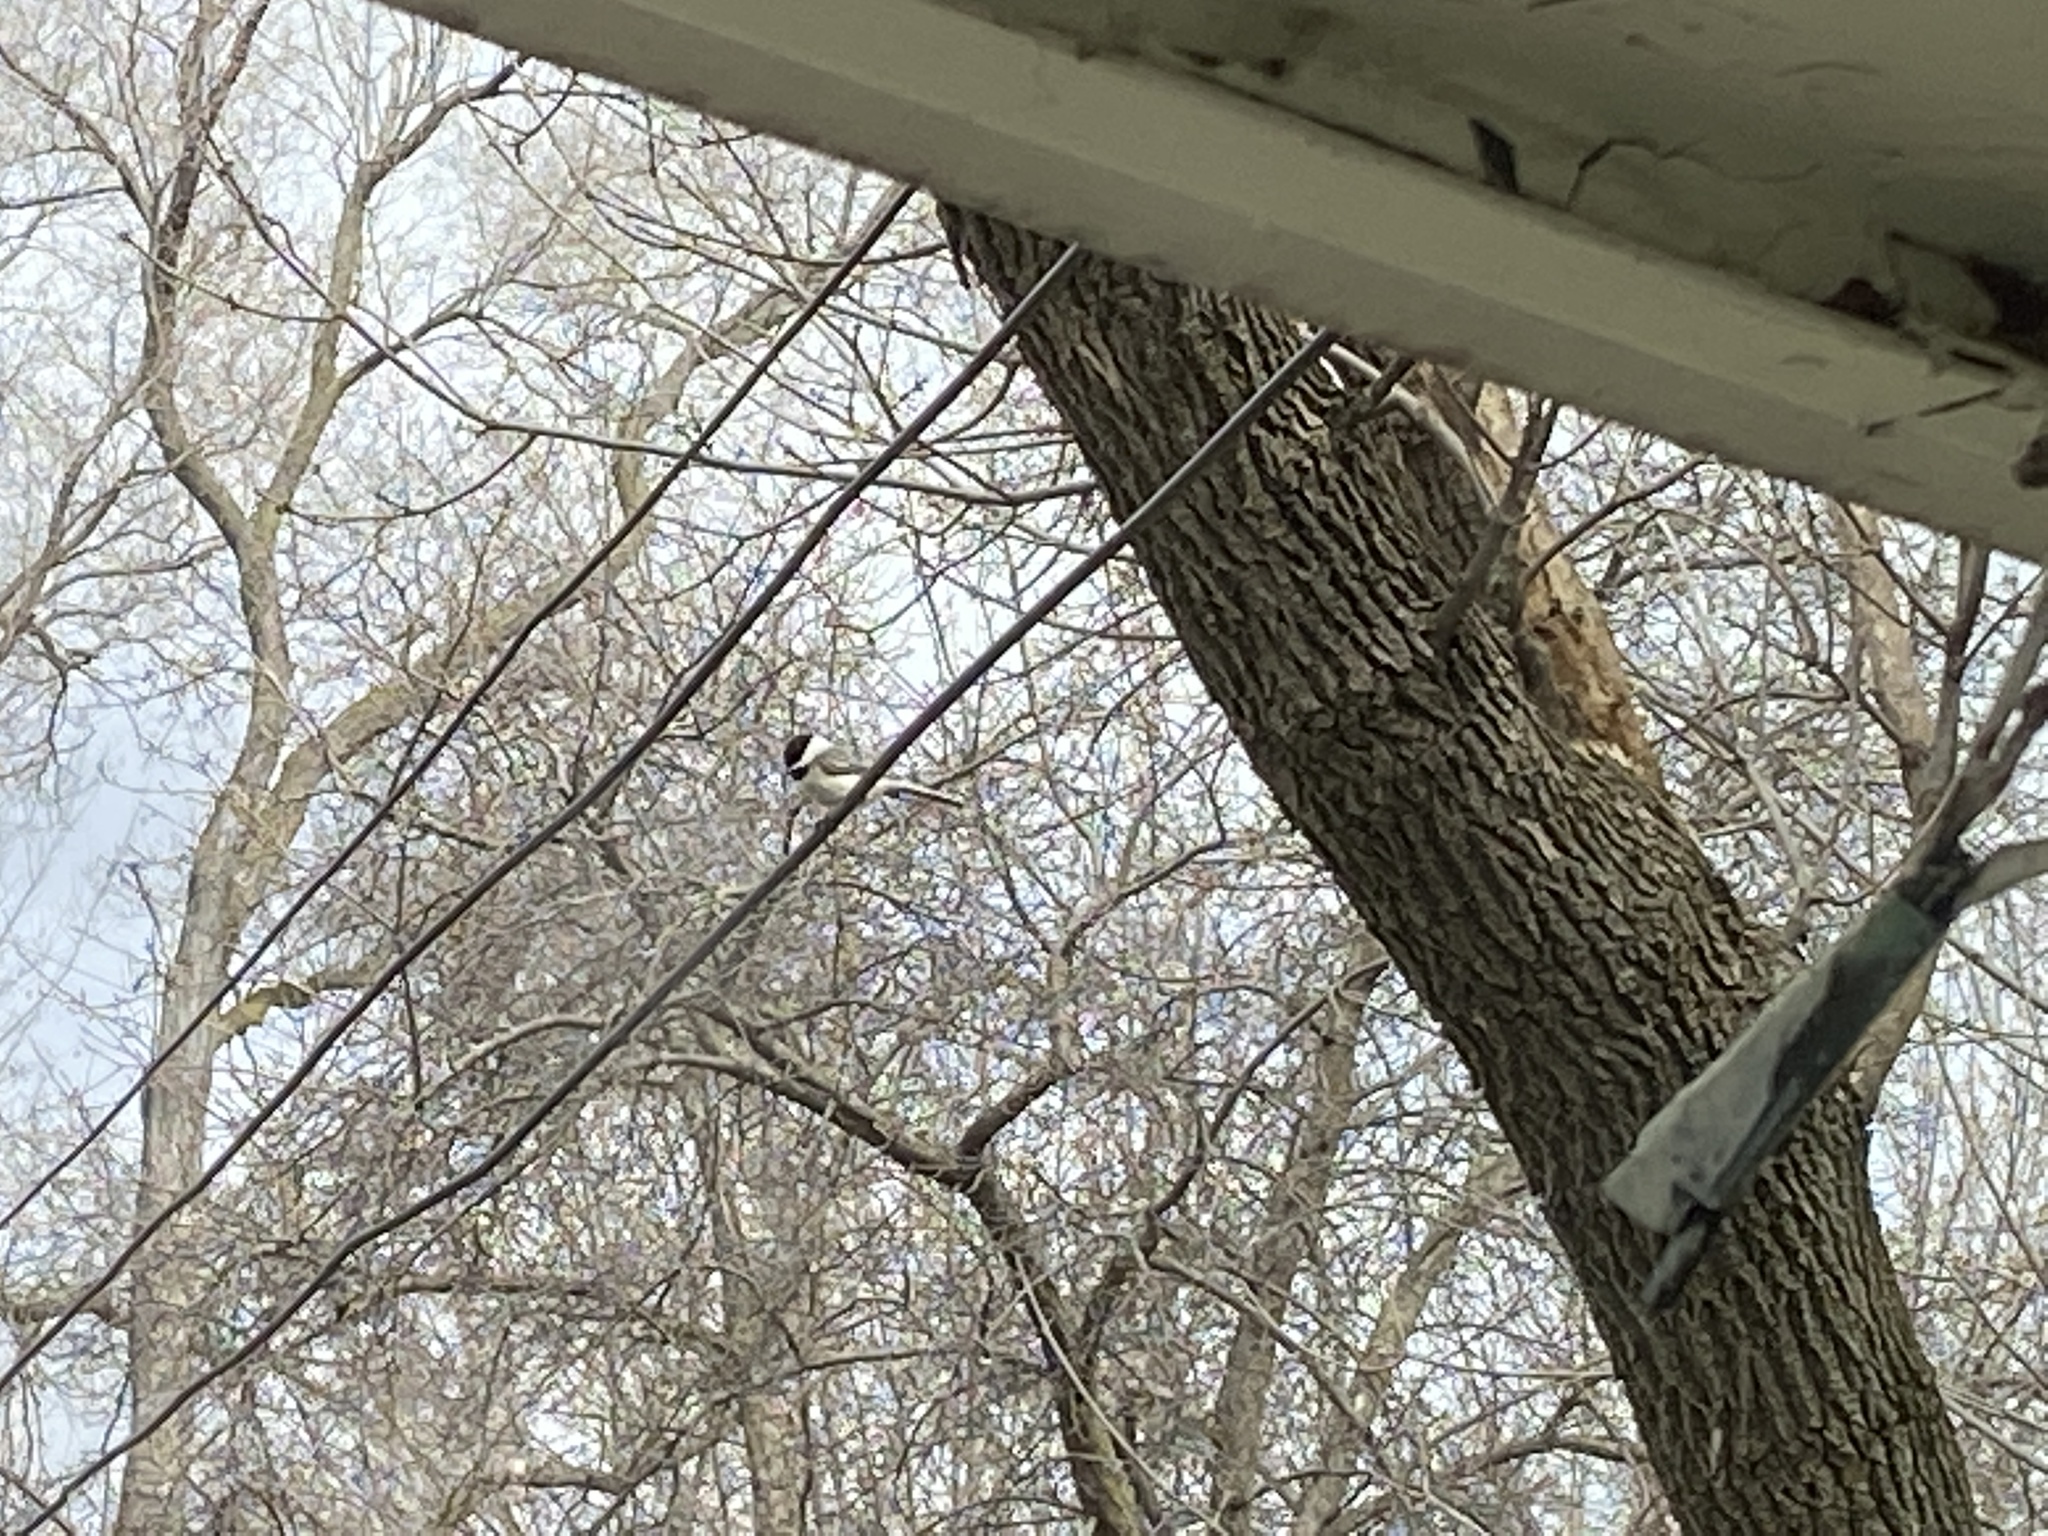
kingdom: Animalia
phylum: Chordata
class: Aves
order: Passeriformes
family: Paridae
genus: Poecile
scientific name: Poecile atricapillus
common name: Black-capped chickadee
